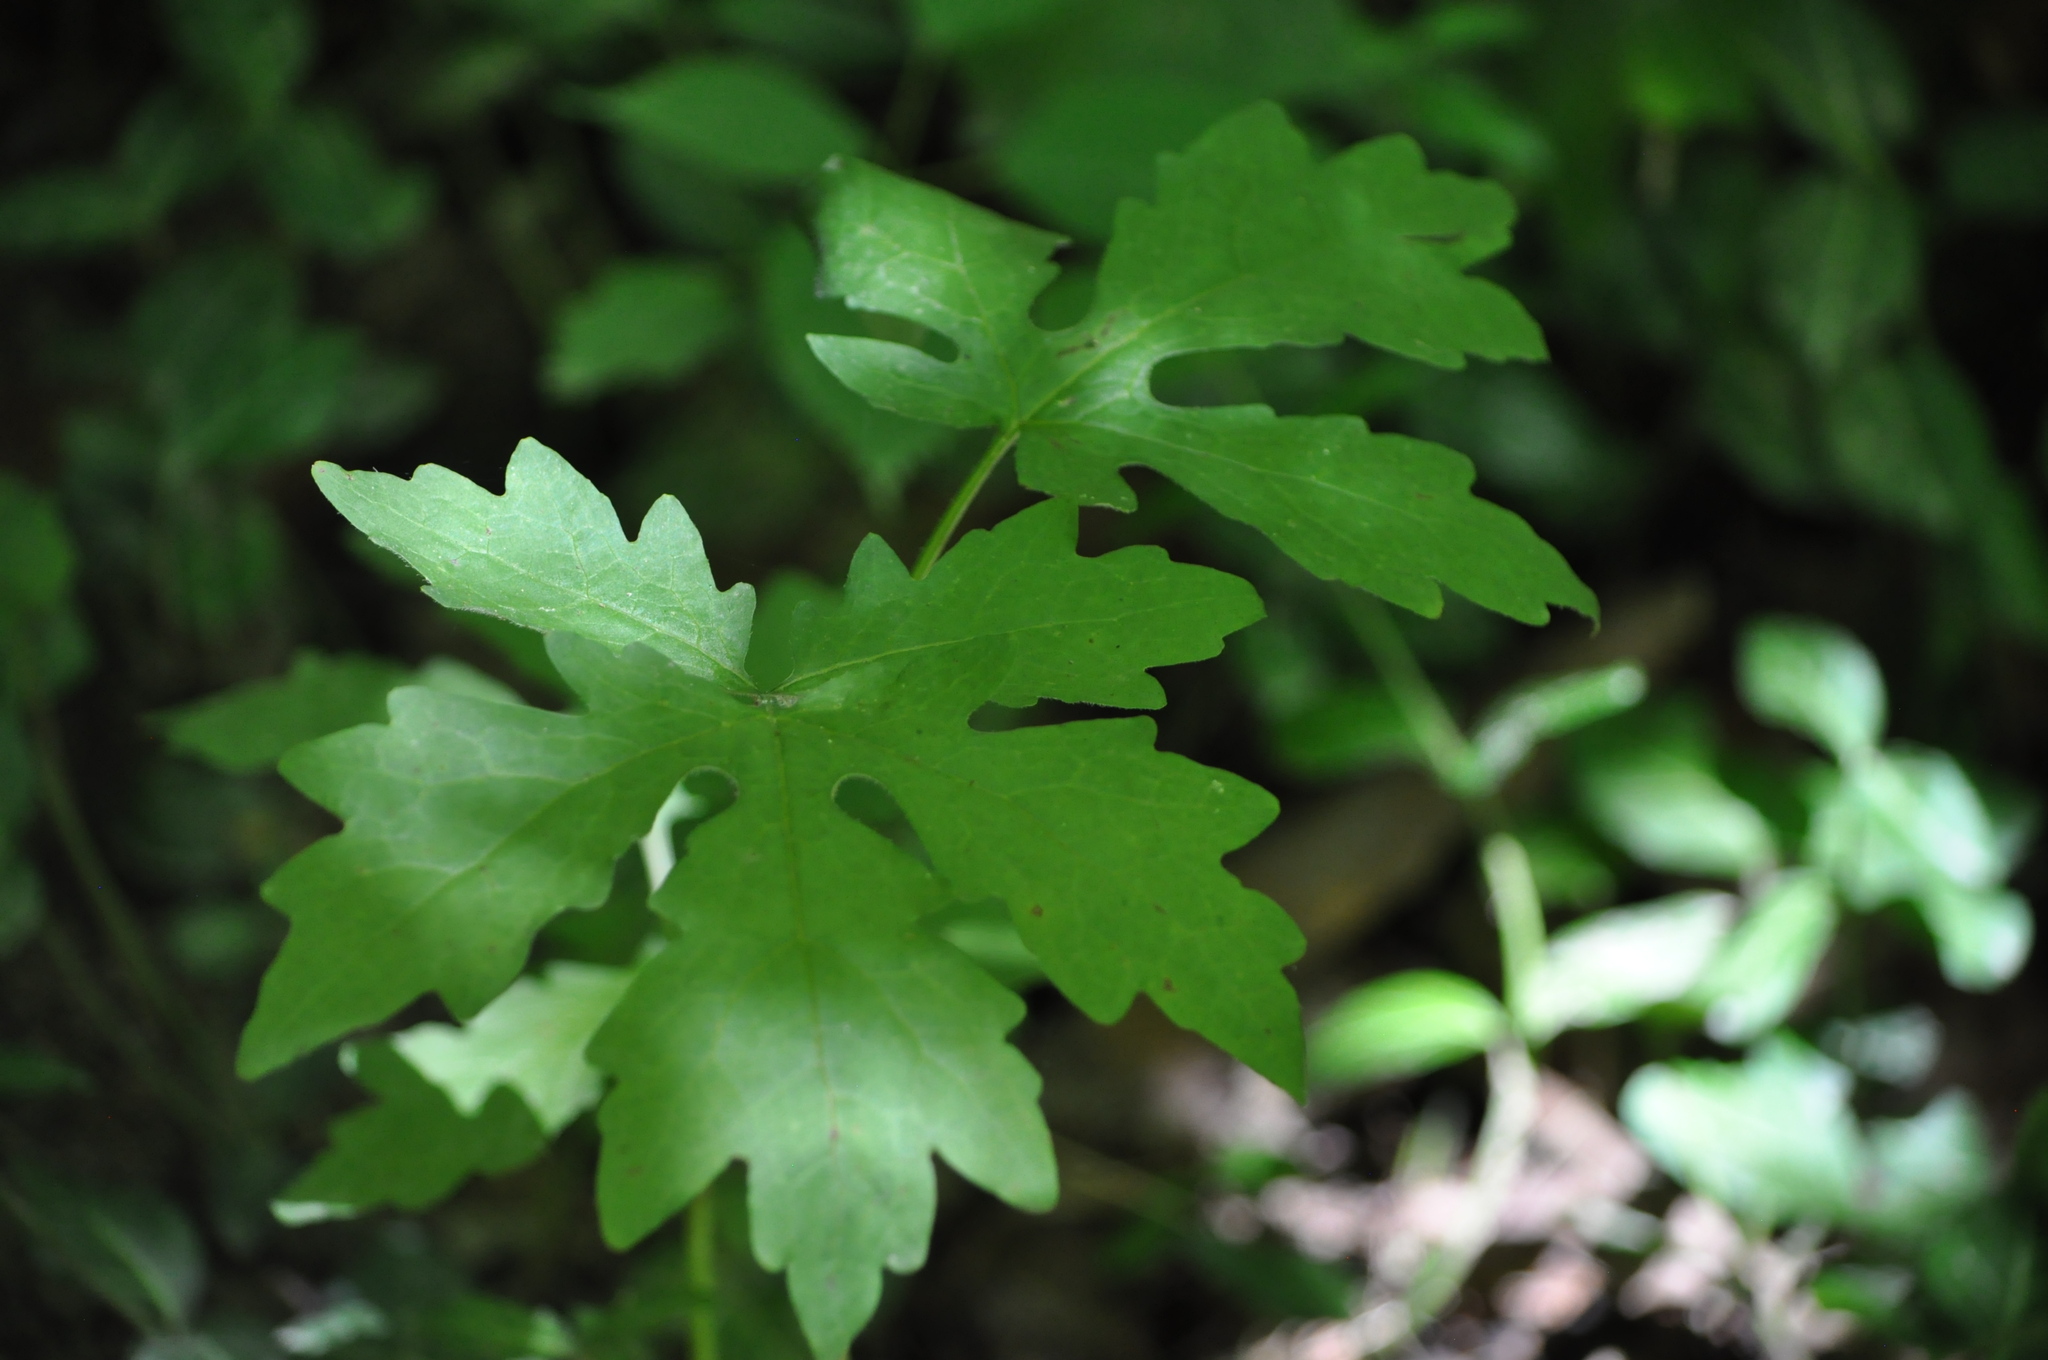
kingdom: Plantae
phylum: Tracheophyta
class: Magnoliopsida
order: Ranunculales
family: Papaveraceae
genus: Stylophorum
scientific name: Stylophorum diphyllum
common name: Celandine poppy
